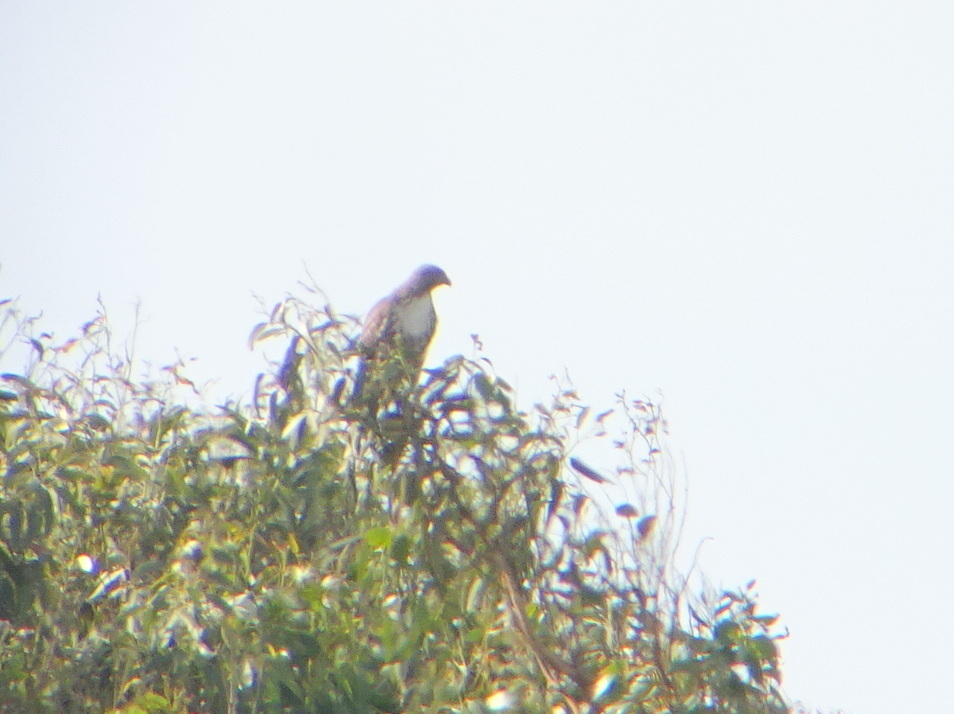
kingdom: Animalia
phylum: Chordata
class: Aves
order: Accipitriformes
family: Accipitridae
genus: Buteo
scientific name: Buteo jamaicensis
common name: Red-tailed hawk
